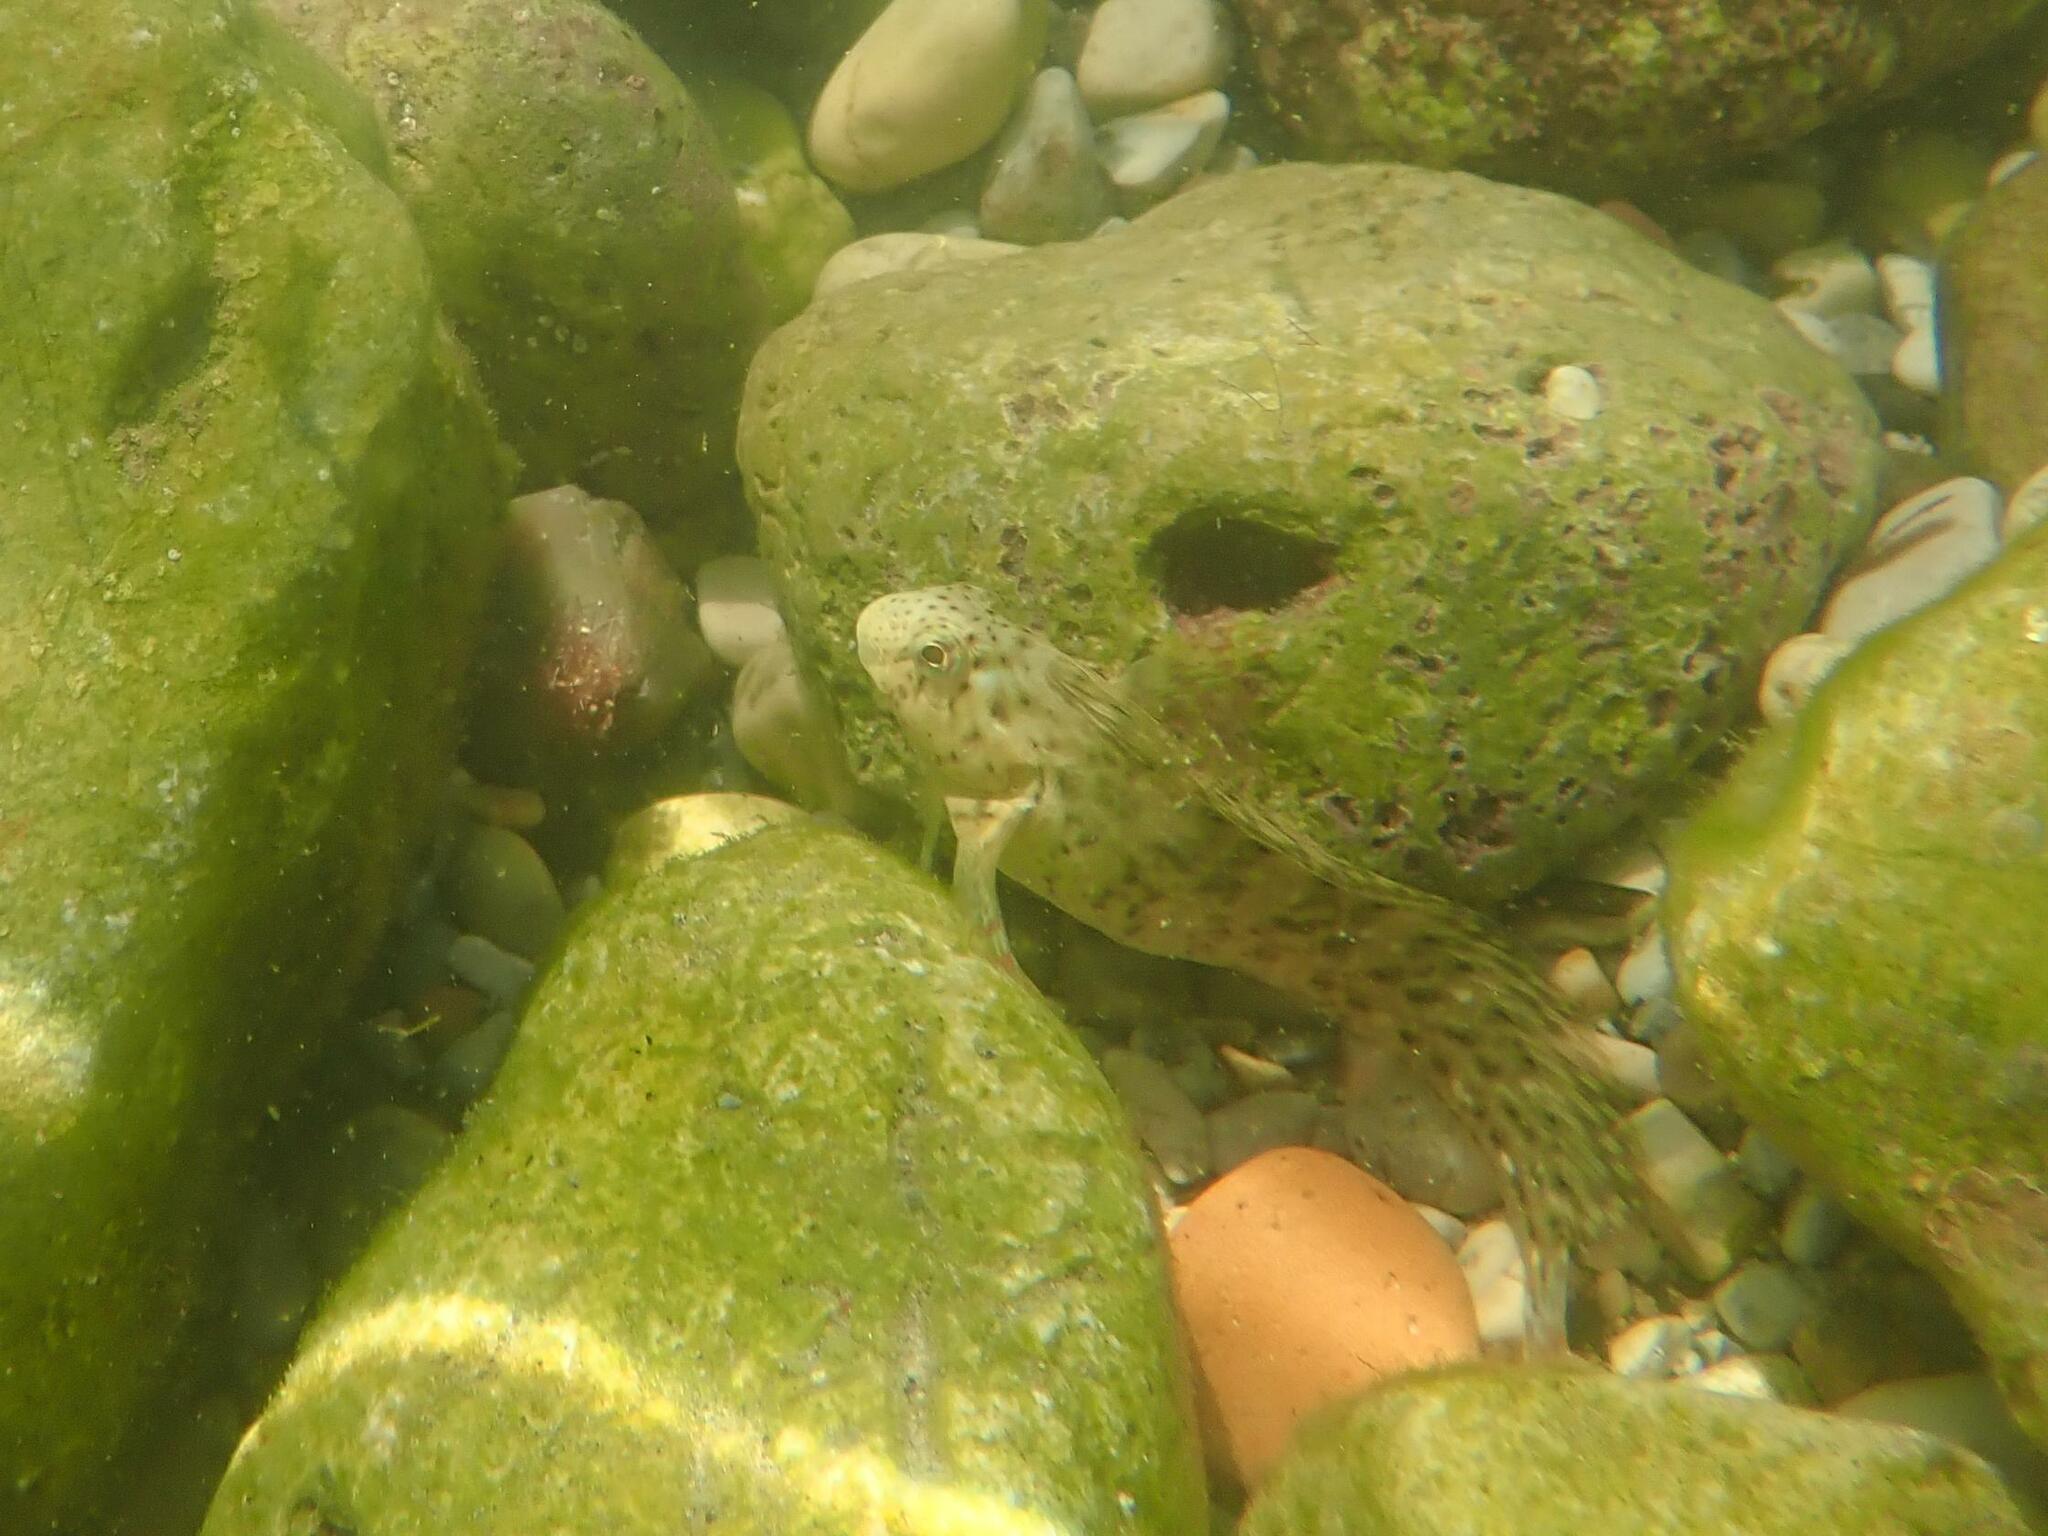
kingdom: Animalia
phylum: Chordata
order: Perciformes
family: Blenniidae
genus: Parablennius
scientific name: Parablennius sanguinolentus
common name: Black sea blenny
